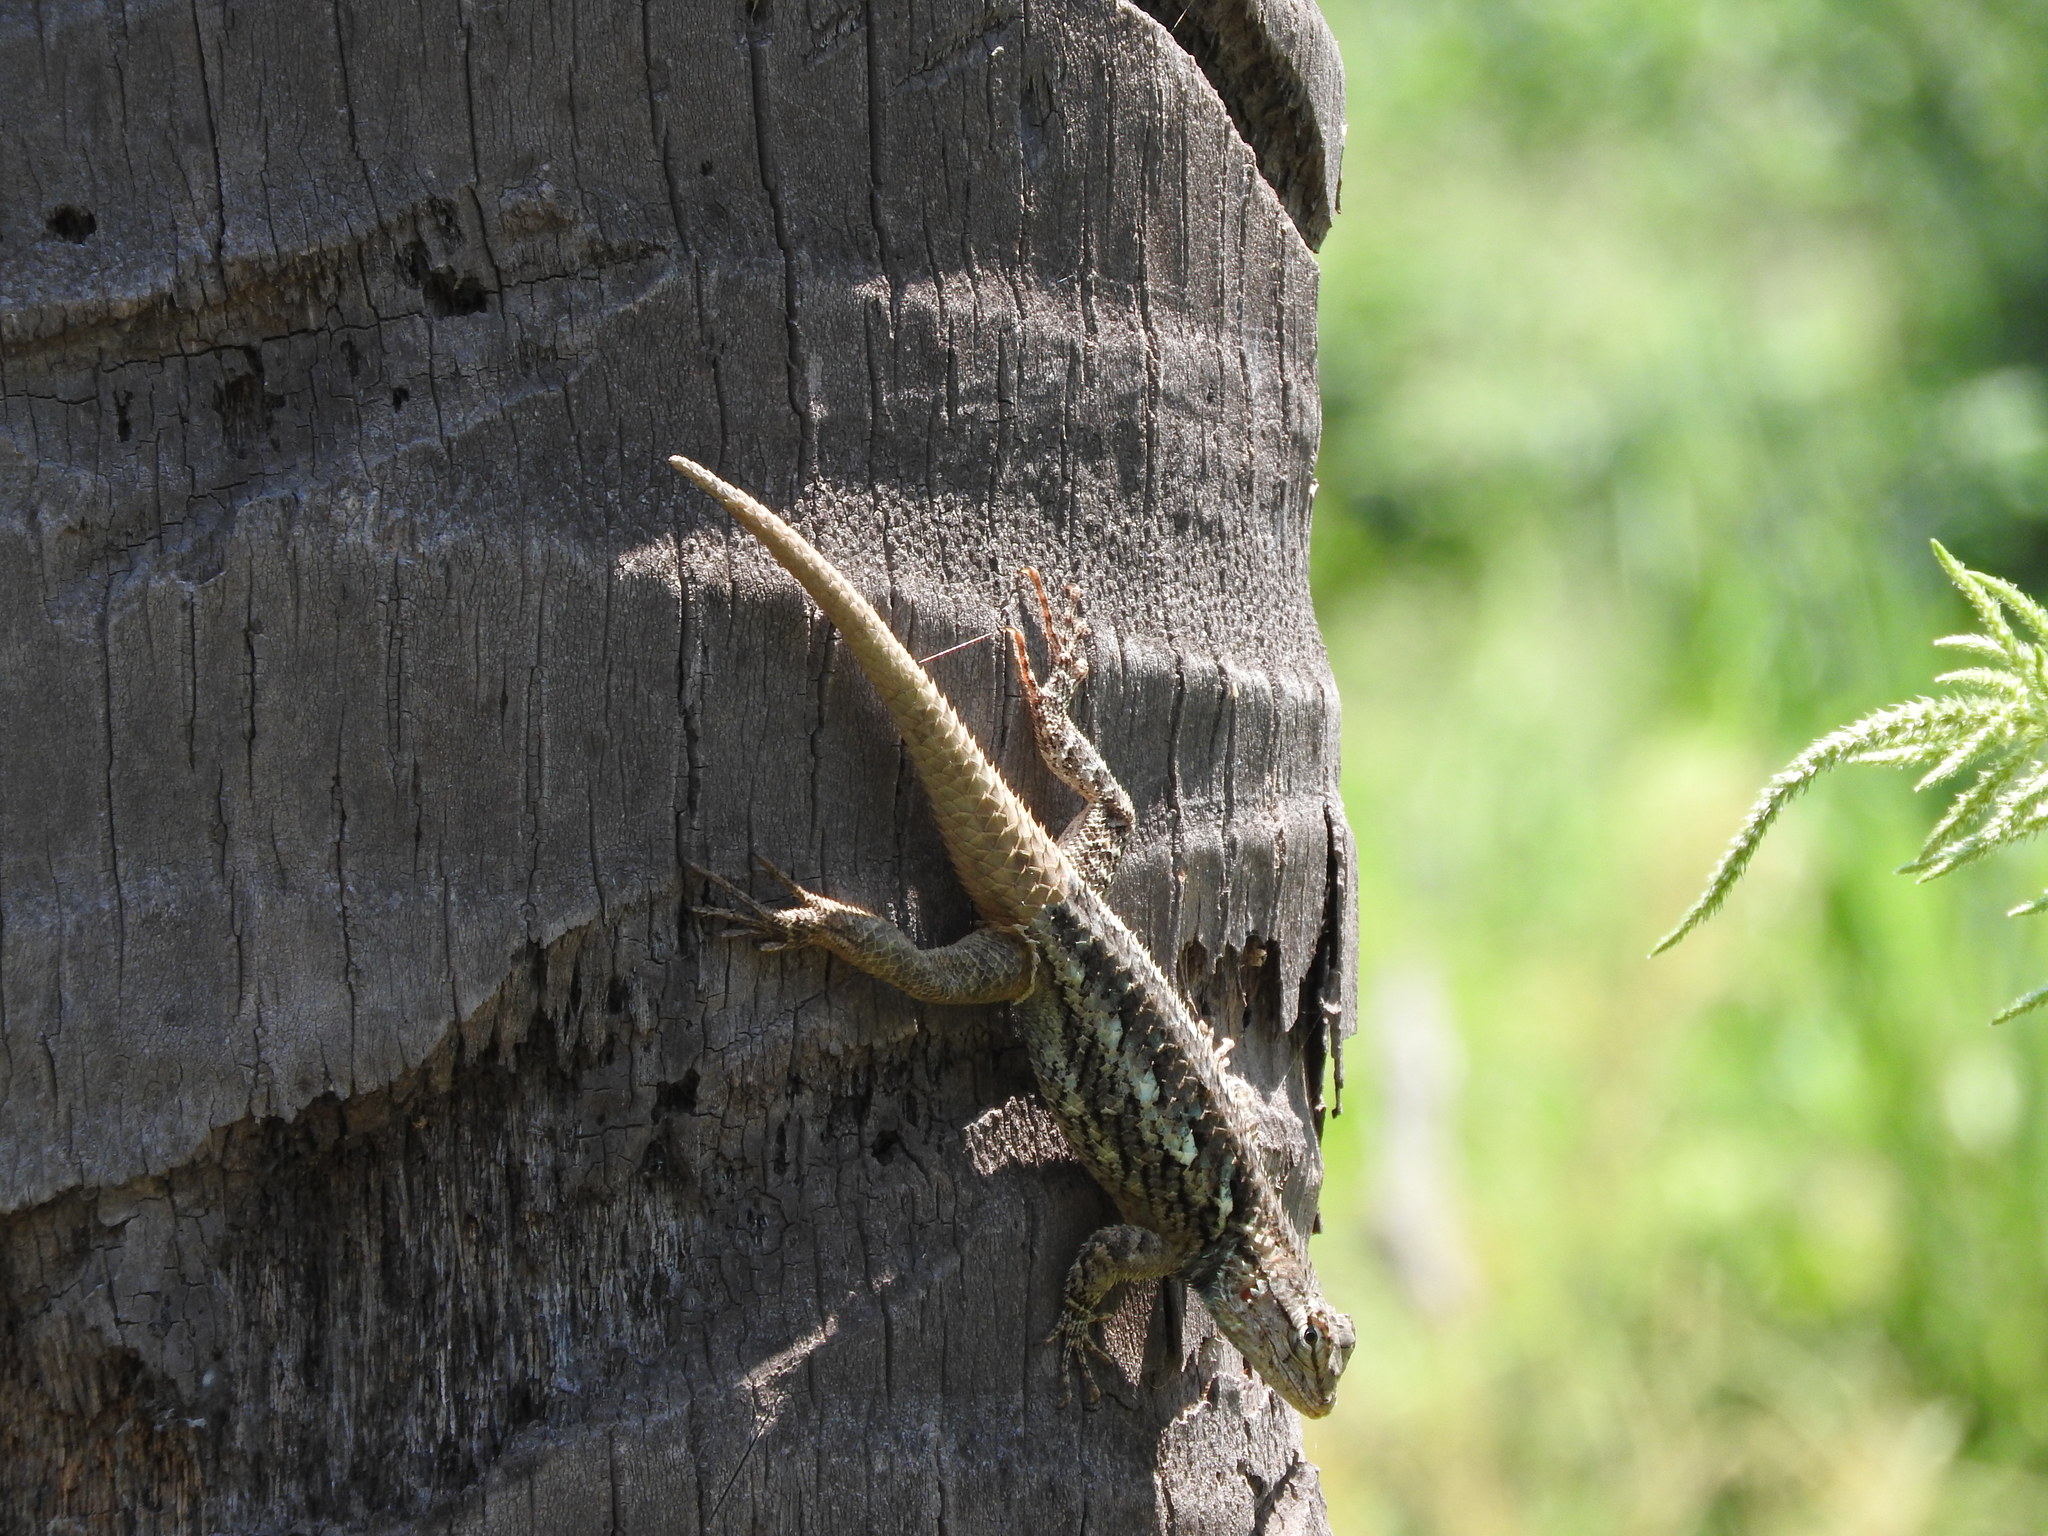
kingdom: Animalia
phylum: Chordata
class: Squamata
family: Phrynosomatidae
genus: Sceloporus
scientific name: Sceloporus utiformis
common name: Antesator
